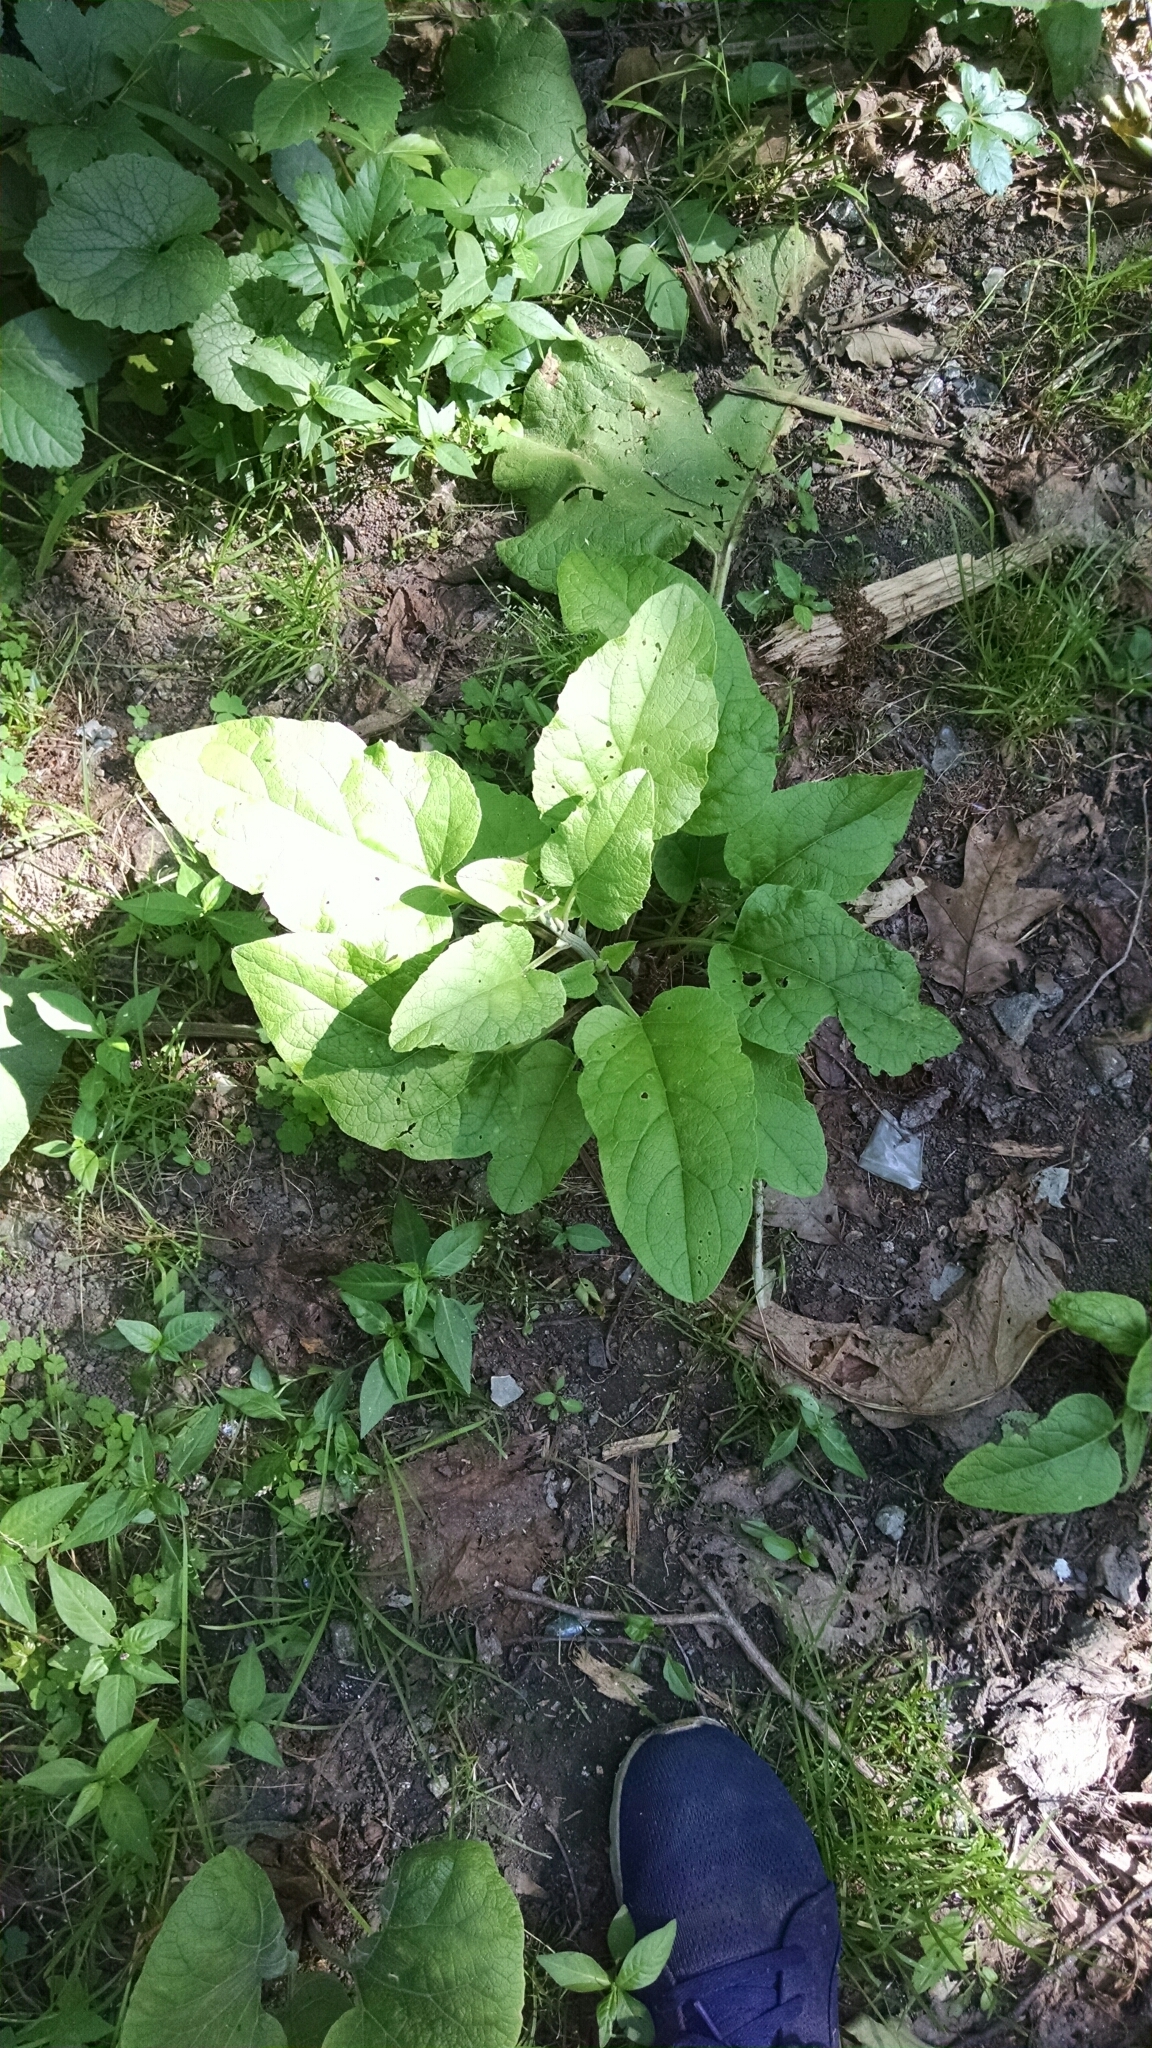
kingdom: Plantae
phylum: Tracheophyta
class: Magnoliopsida
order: Asterales
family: Asteraceae
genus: Arctium
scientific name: Arctium
